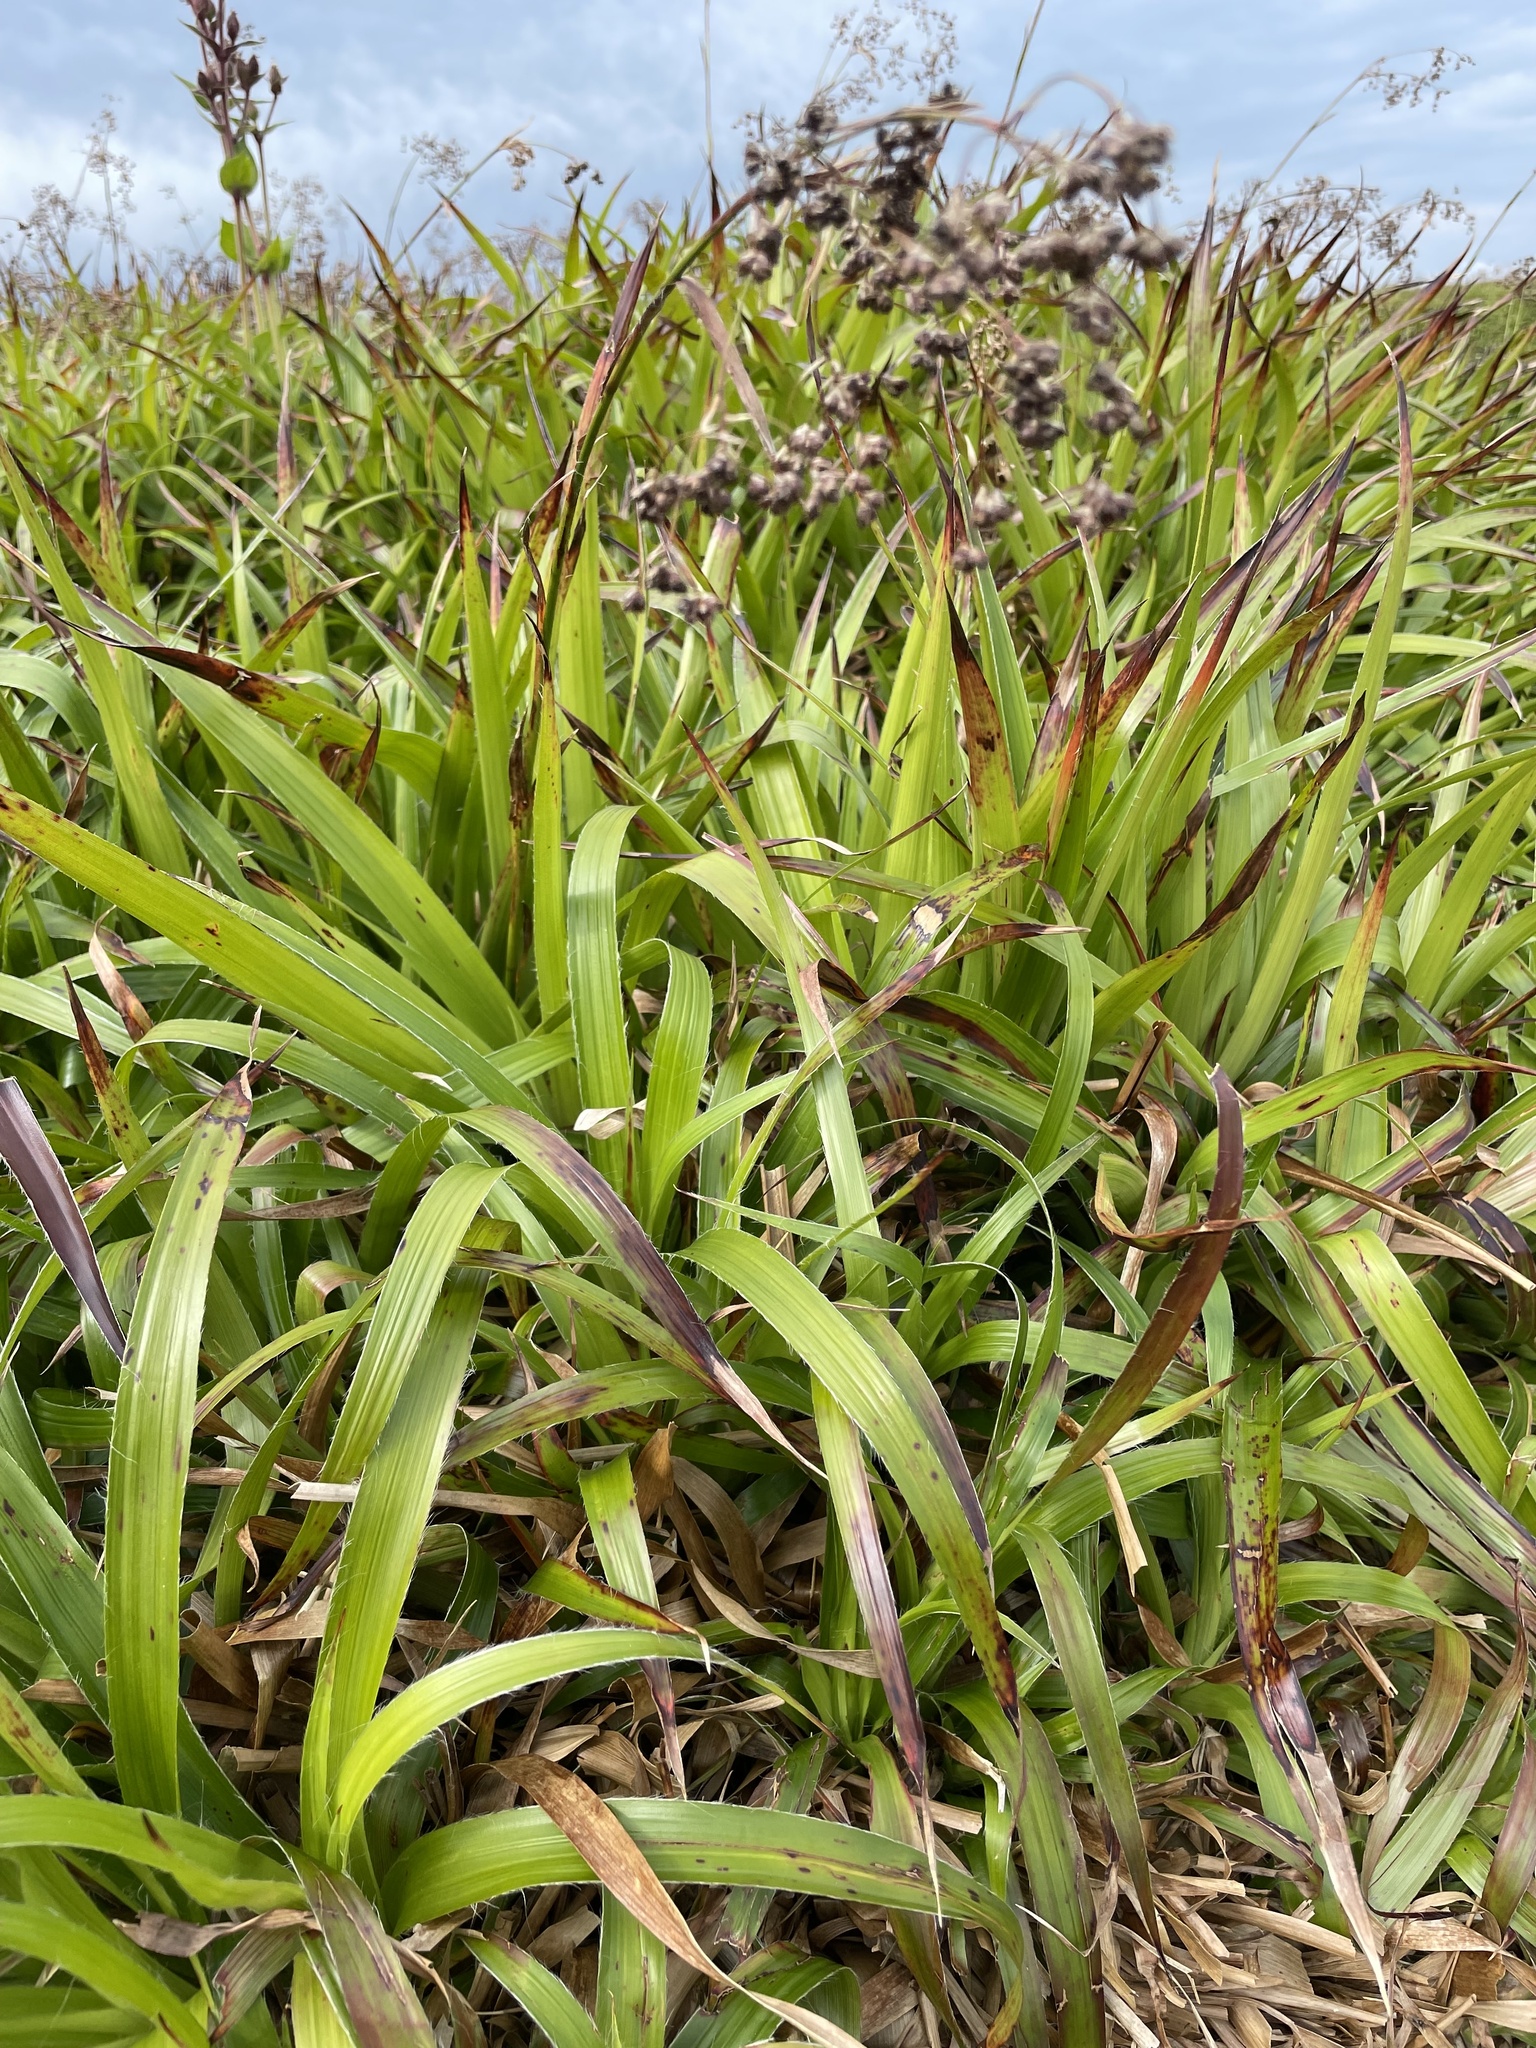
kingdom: Plantae
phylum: Tracheophyta
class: Liliopsida
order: Poales
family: Juncaceae
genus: Luzula
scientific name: Luzula sylvatica
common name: Great wood-rush
